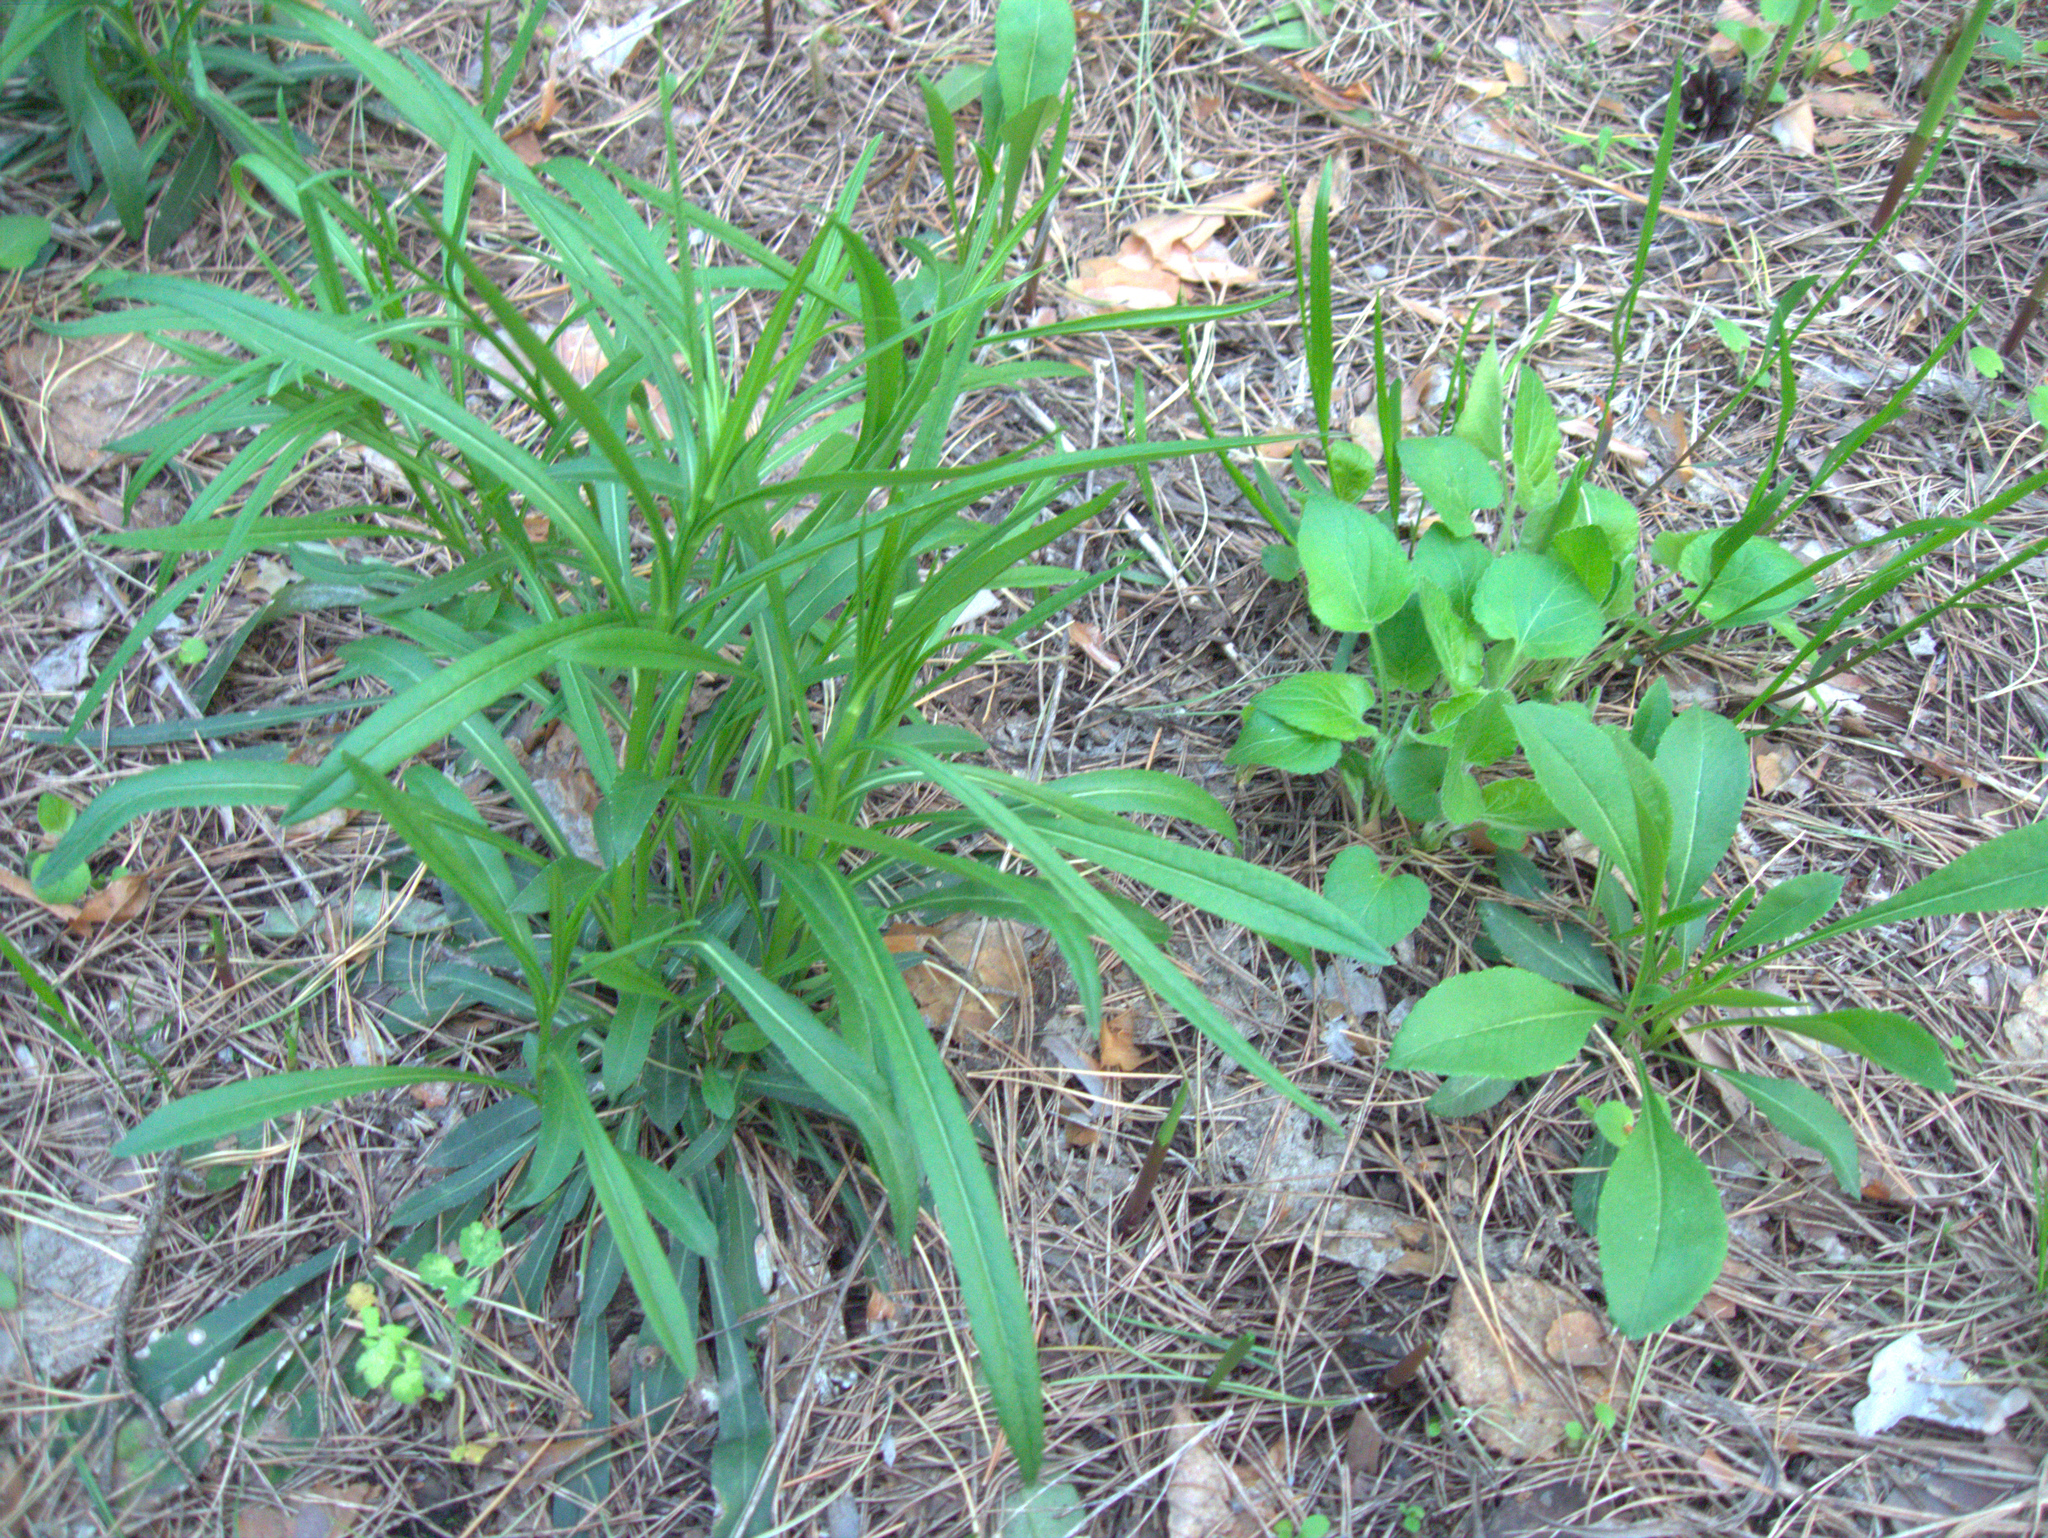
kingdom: Plantae
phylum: Tracheophyta
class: Magnoliopsida
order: Asterales
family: Campanulaceae
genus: Campanula
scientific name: Campanula persicifolia
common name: Peach-leaved bellflower
